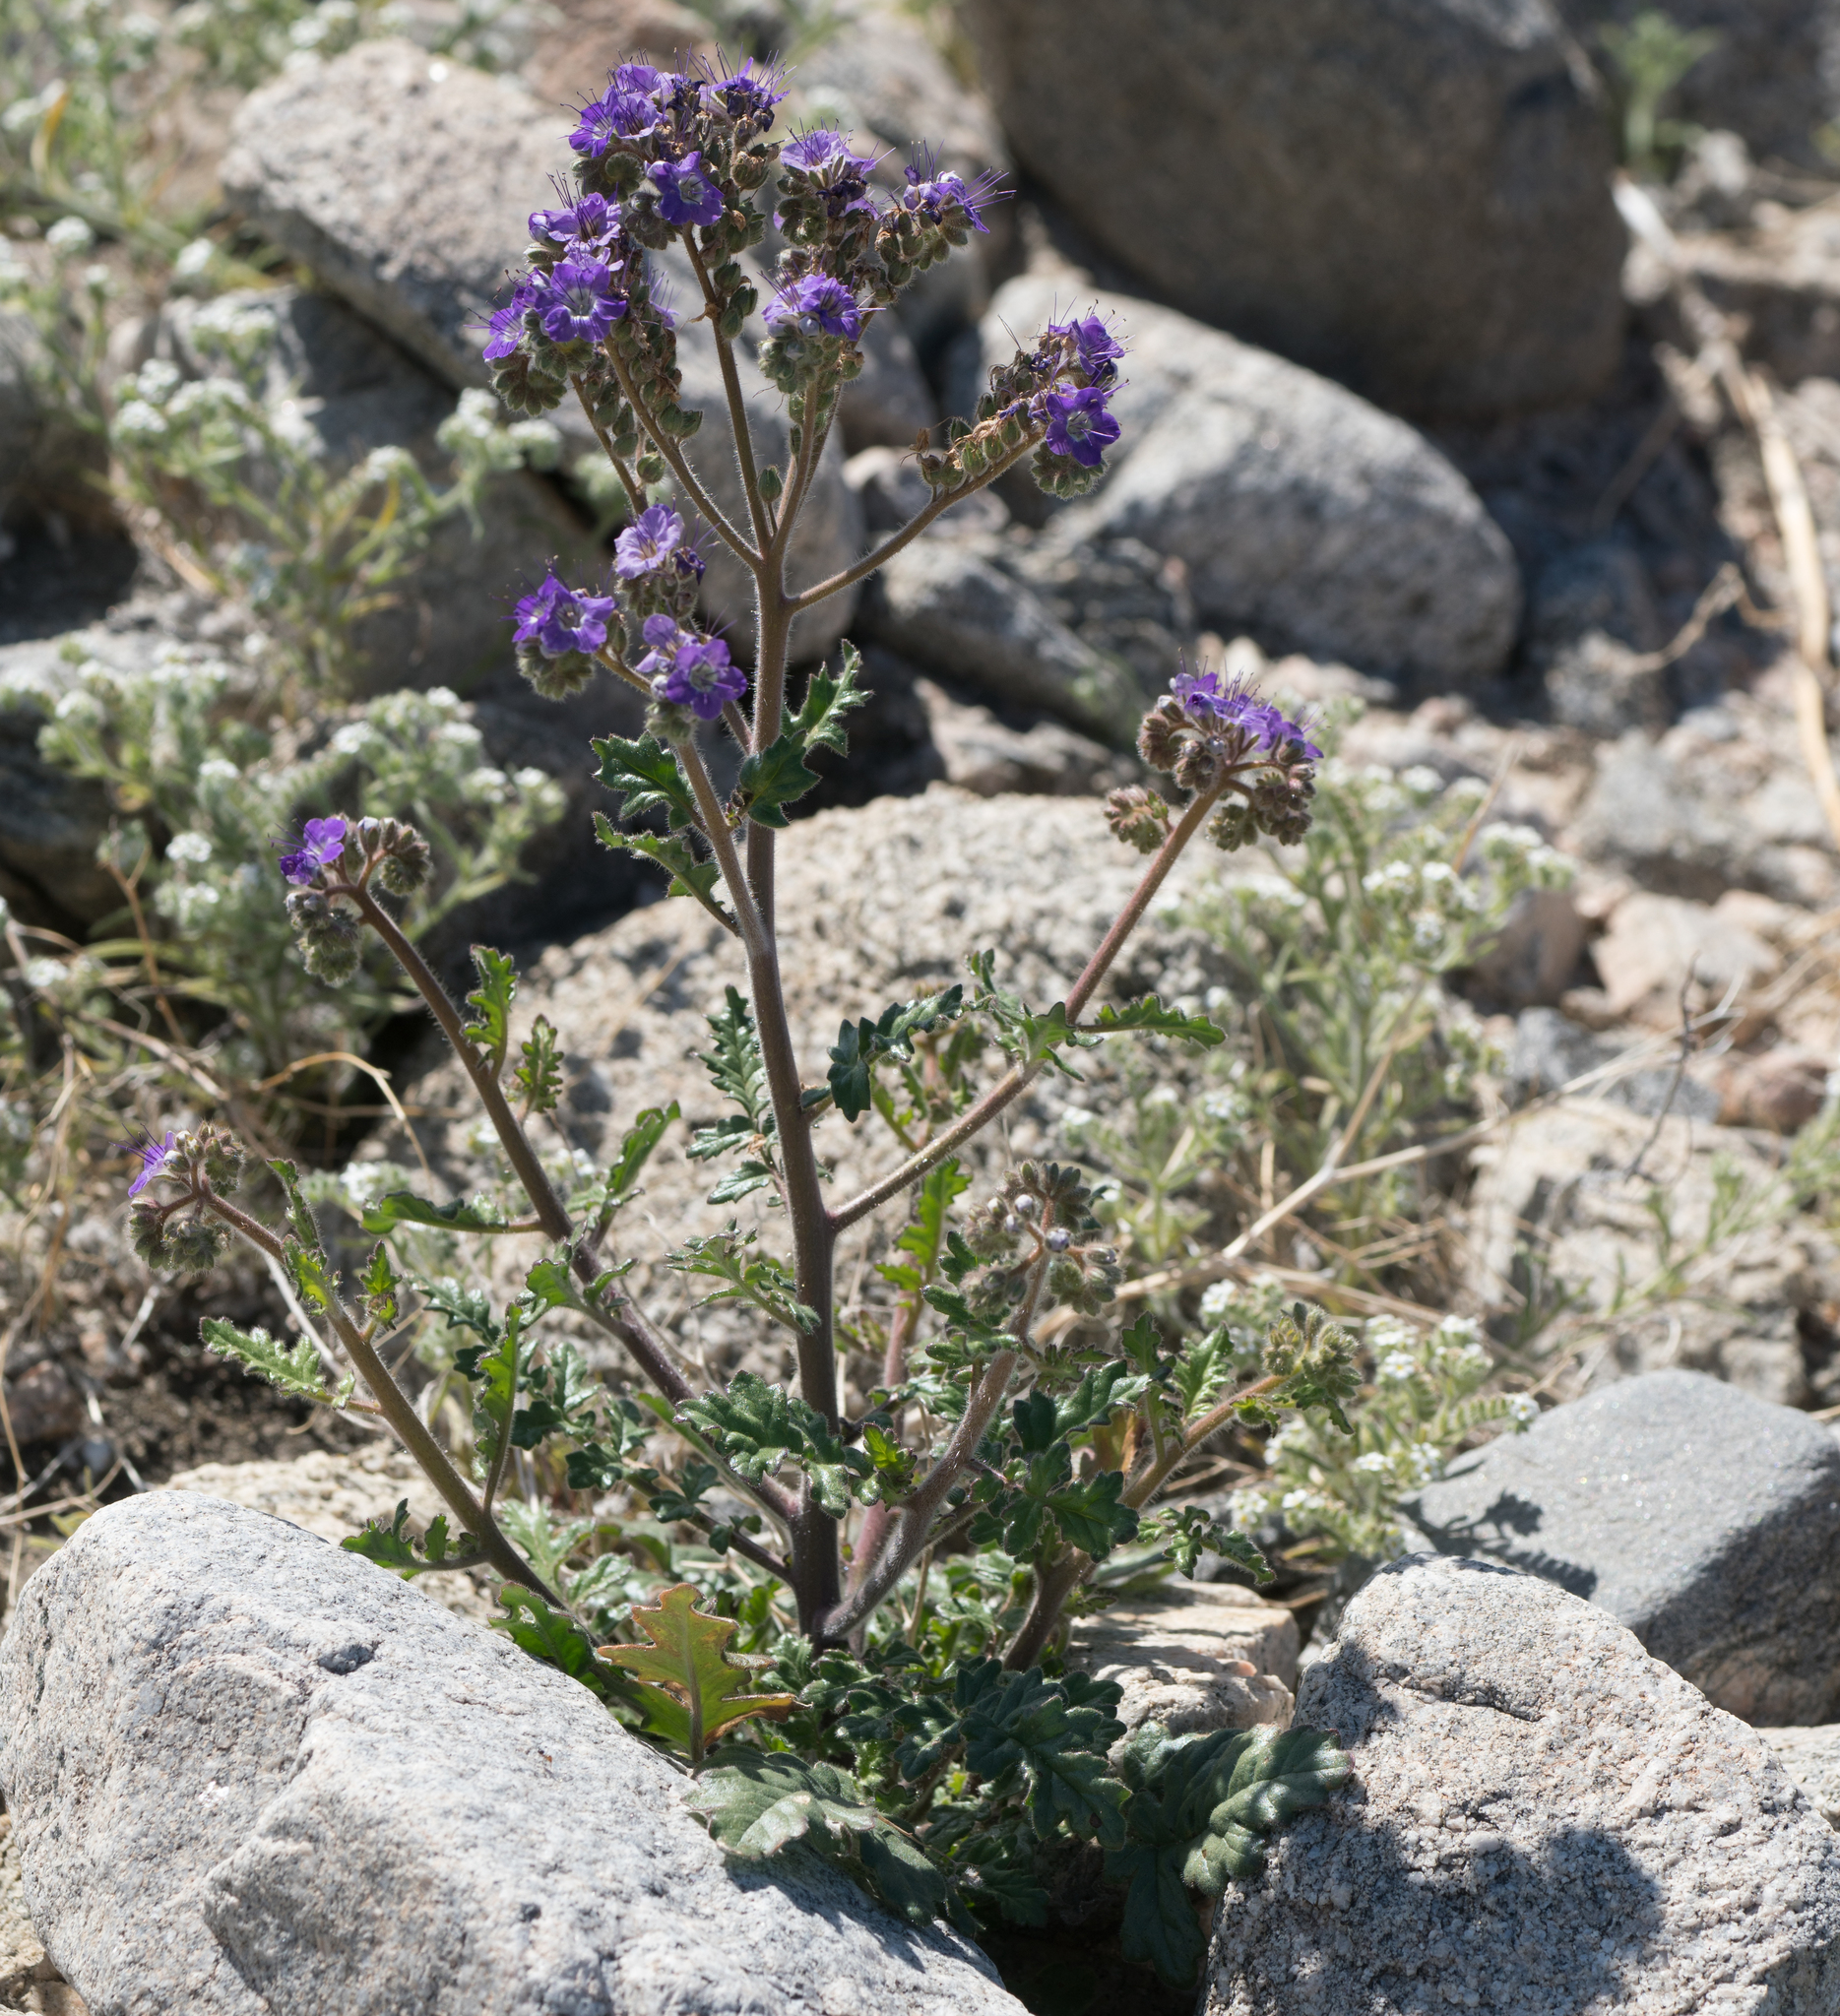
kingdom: Plantae
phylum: Tracheophyta
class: Magnoliopsida
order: Boraginales
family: Hydrophyllaceae
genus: Phacelia
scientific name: Phacelia crenulata
